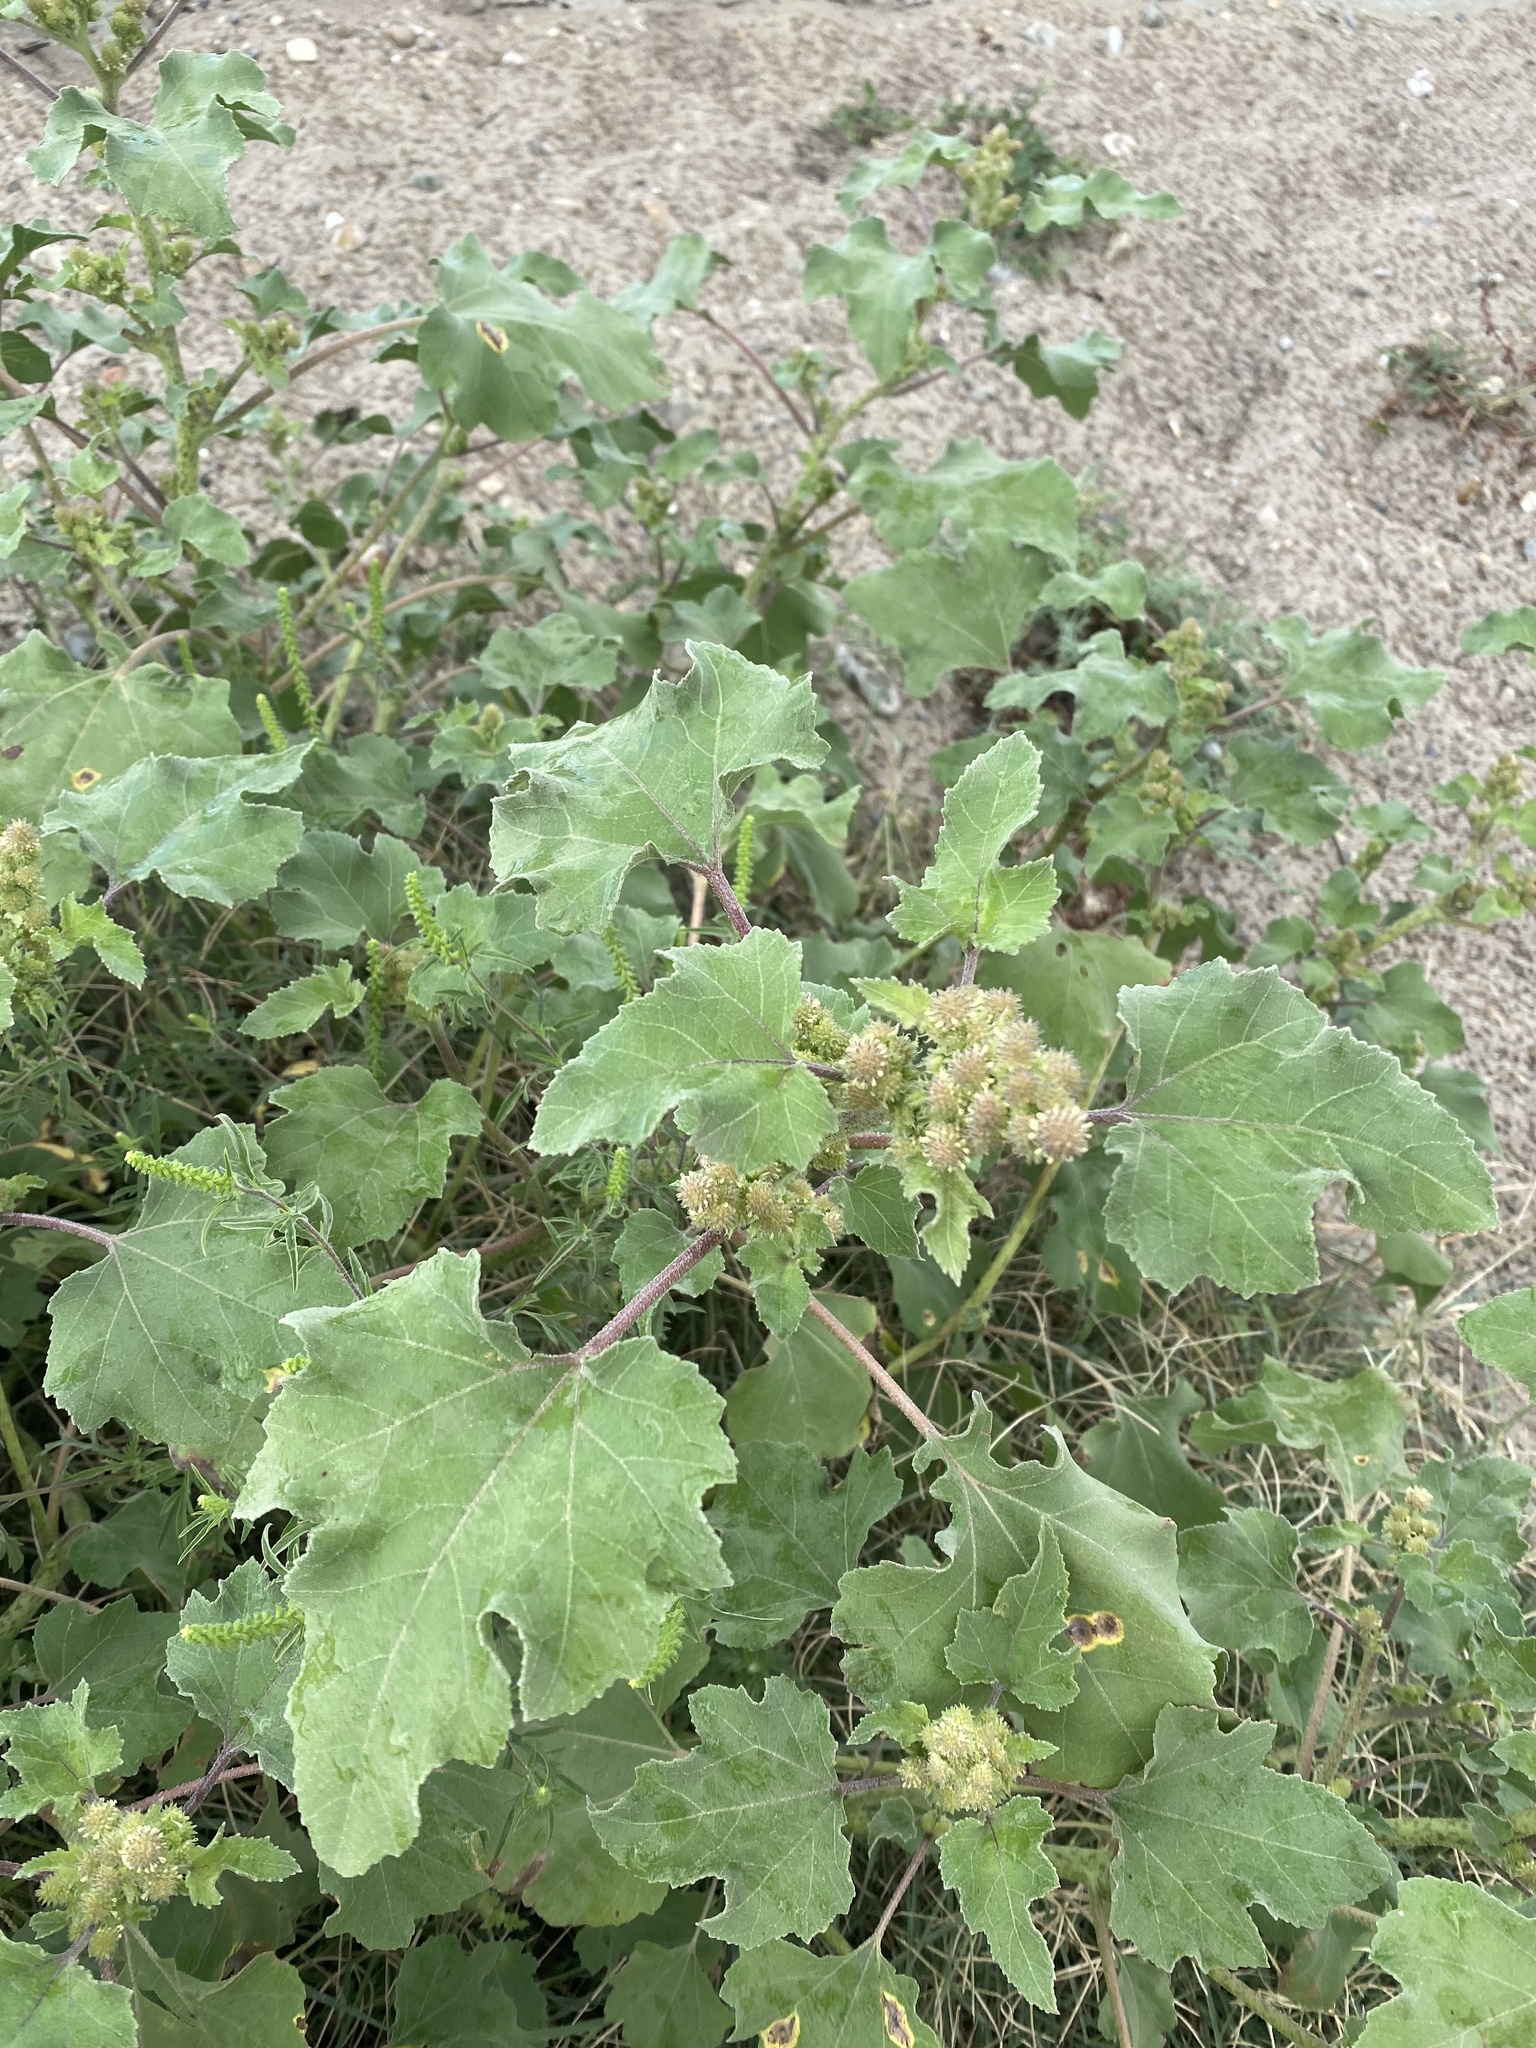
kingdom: Plantae
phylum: Tracheophyta
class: Magnoliopsida
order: Asterales
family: Asteraceae
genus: Xanthium
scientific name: Xanthium orientale
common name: Californian burr
